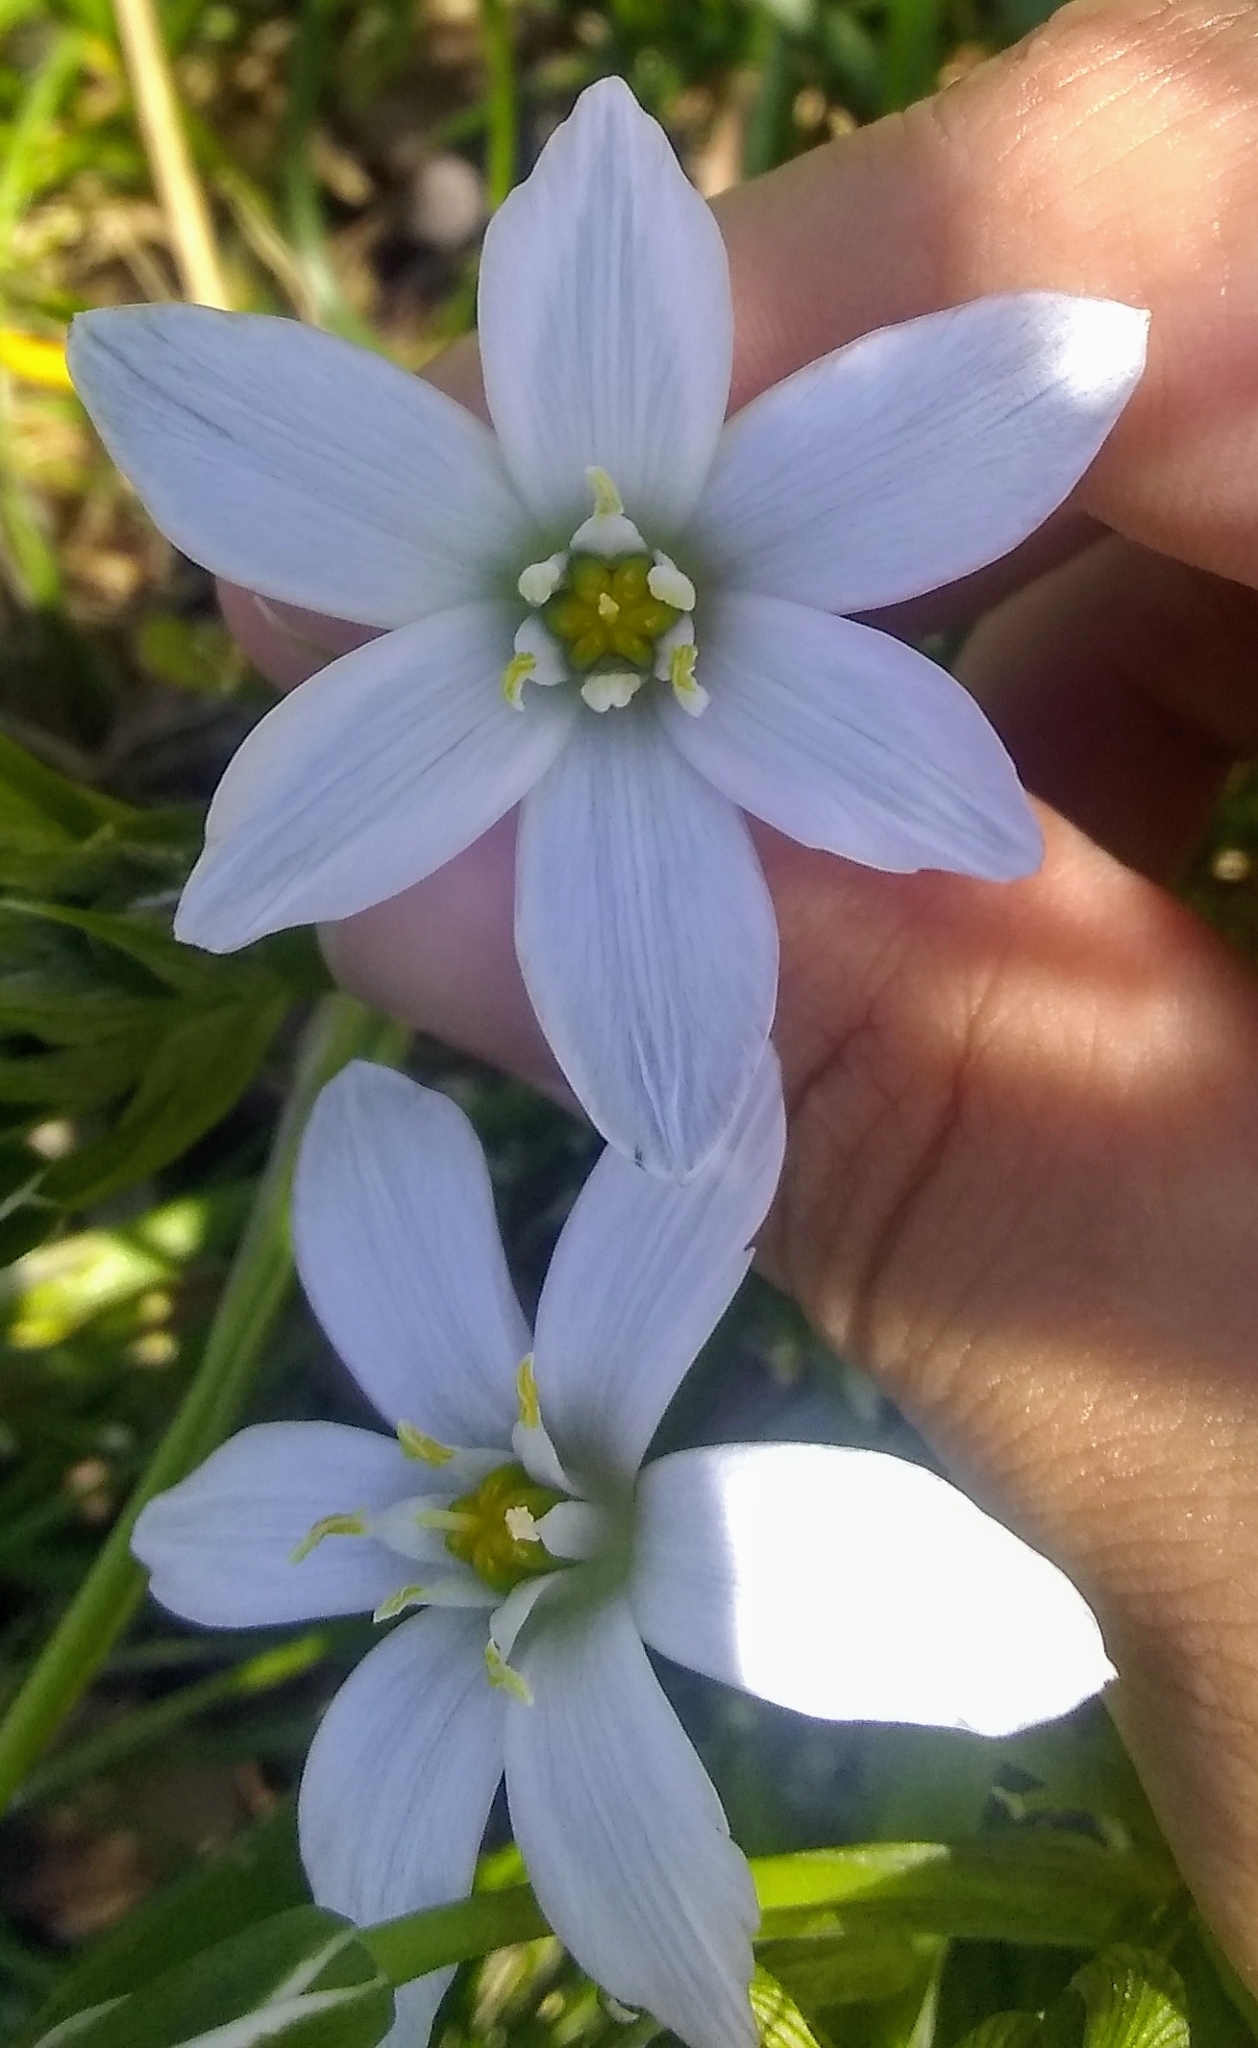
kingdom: Plantae
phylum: Tracheophyta
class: Liliopsida
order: Asparagales
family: Asparagaceae
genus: Ornithogalum
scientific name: Ornithogalum umbellatum
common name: Garden star-of-bethlehem
